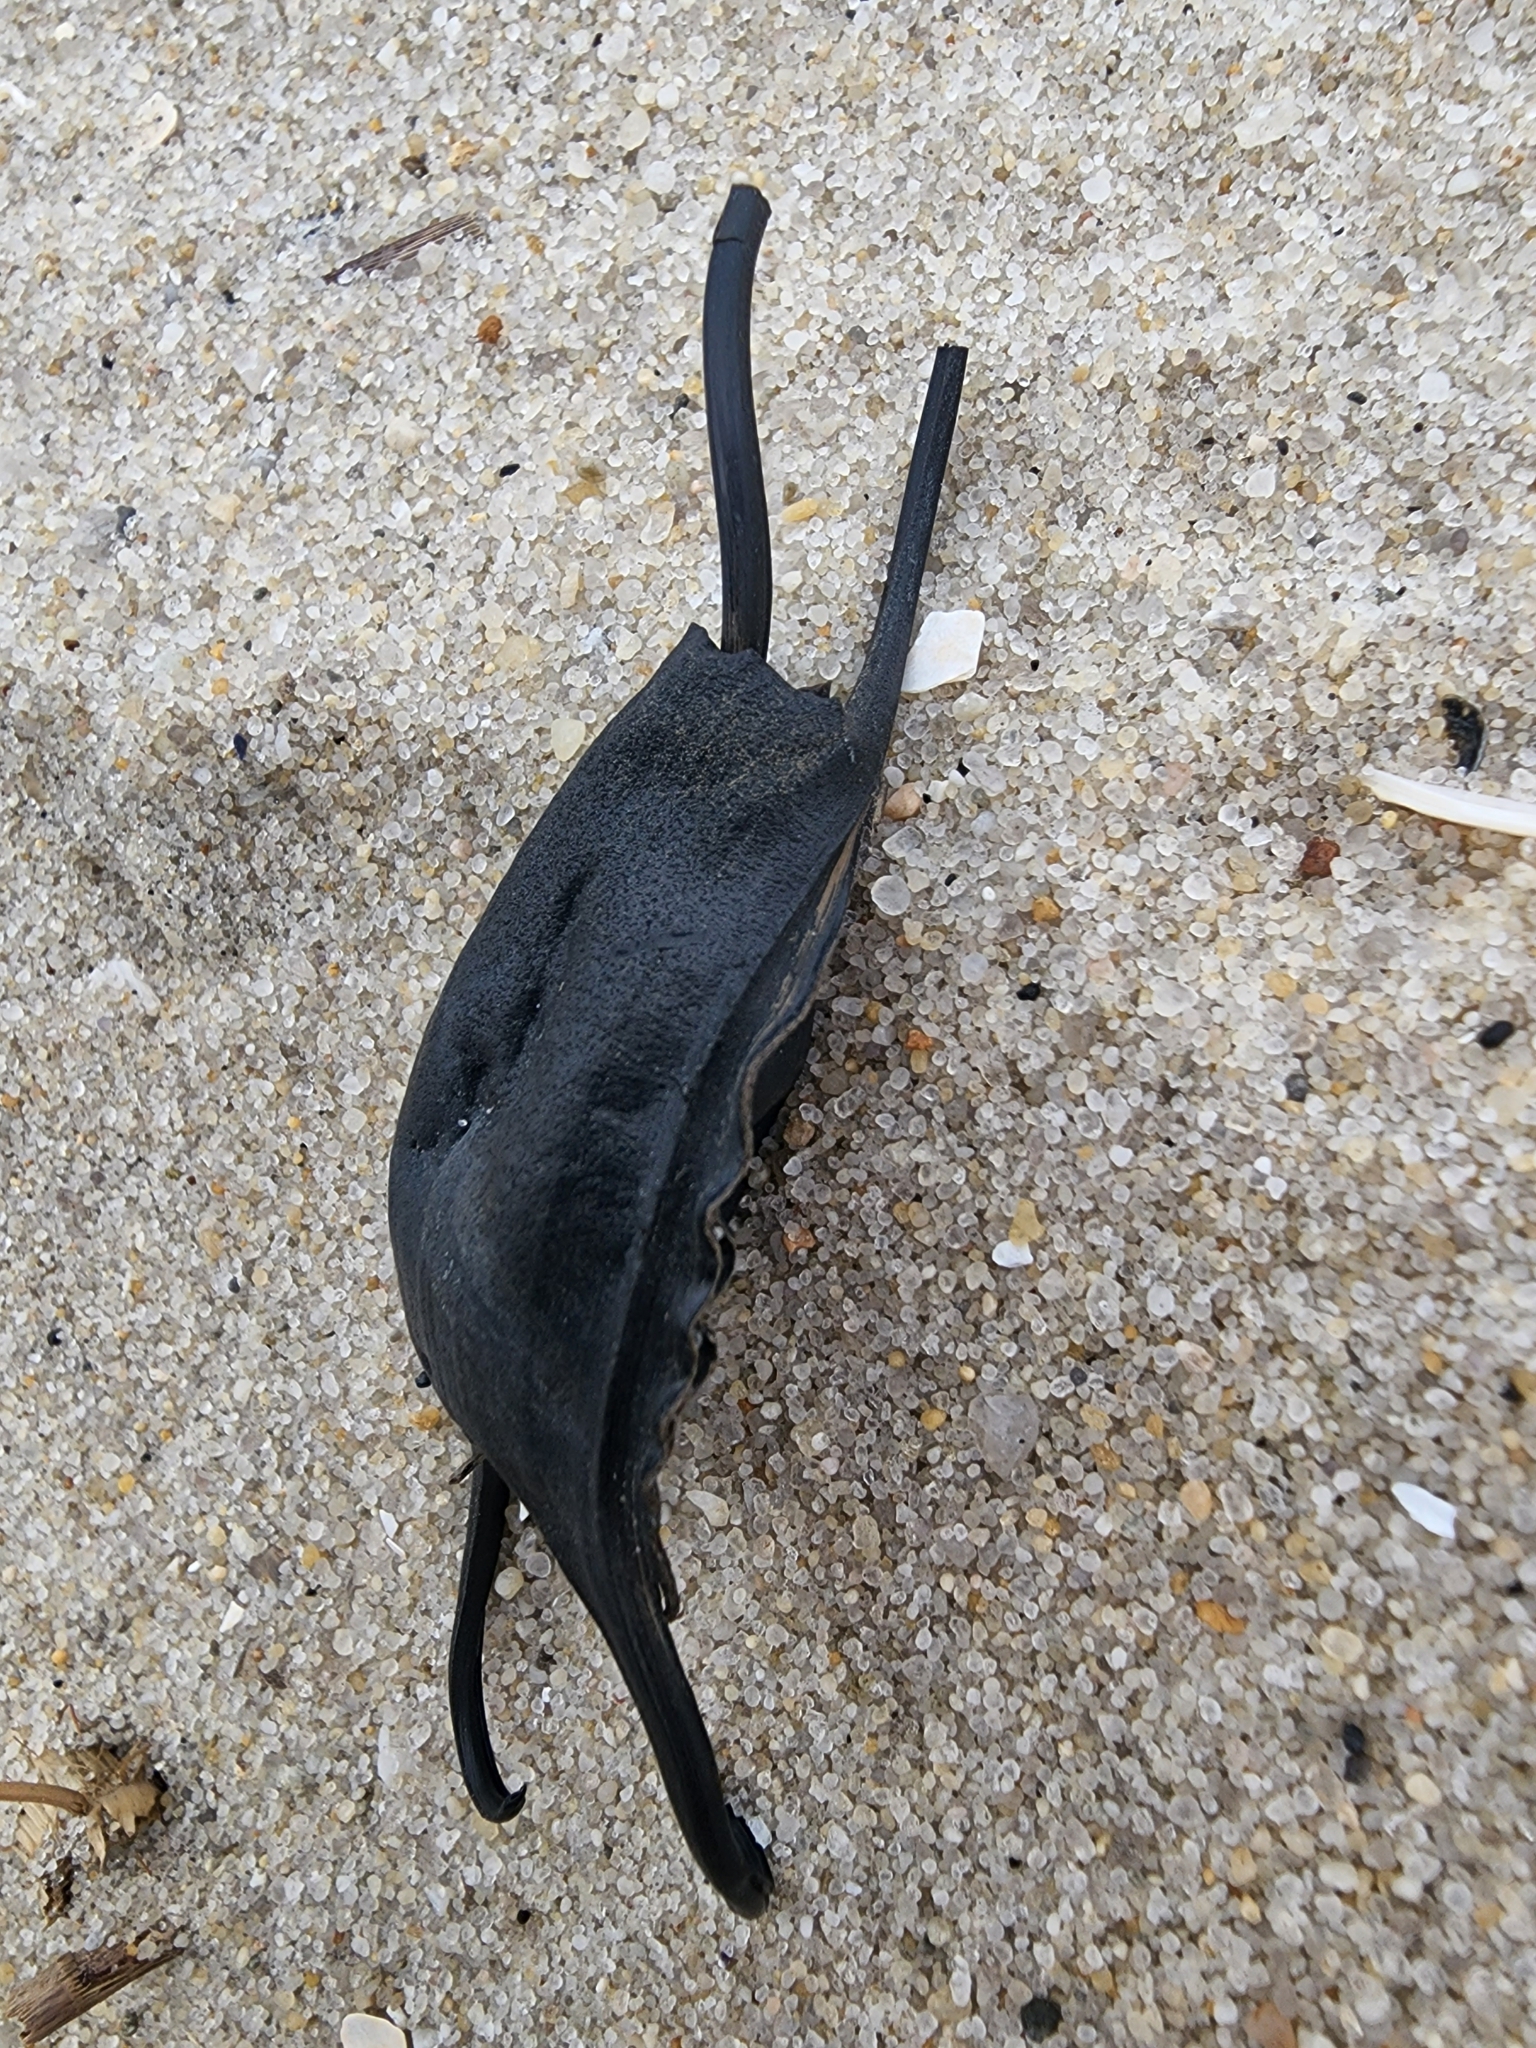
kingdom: Animalia
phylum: Chordata
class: Elasmobranchii
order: Rajiformes
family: Rajidae
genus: Leucoraja
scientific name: Leucoraja erinacea
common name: Little skate
